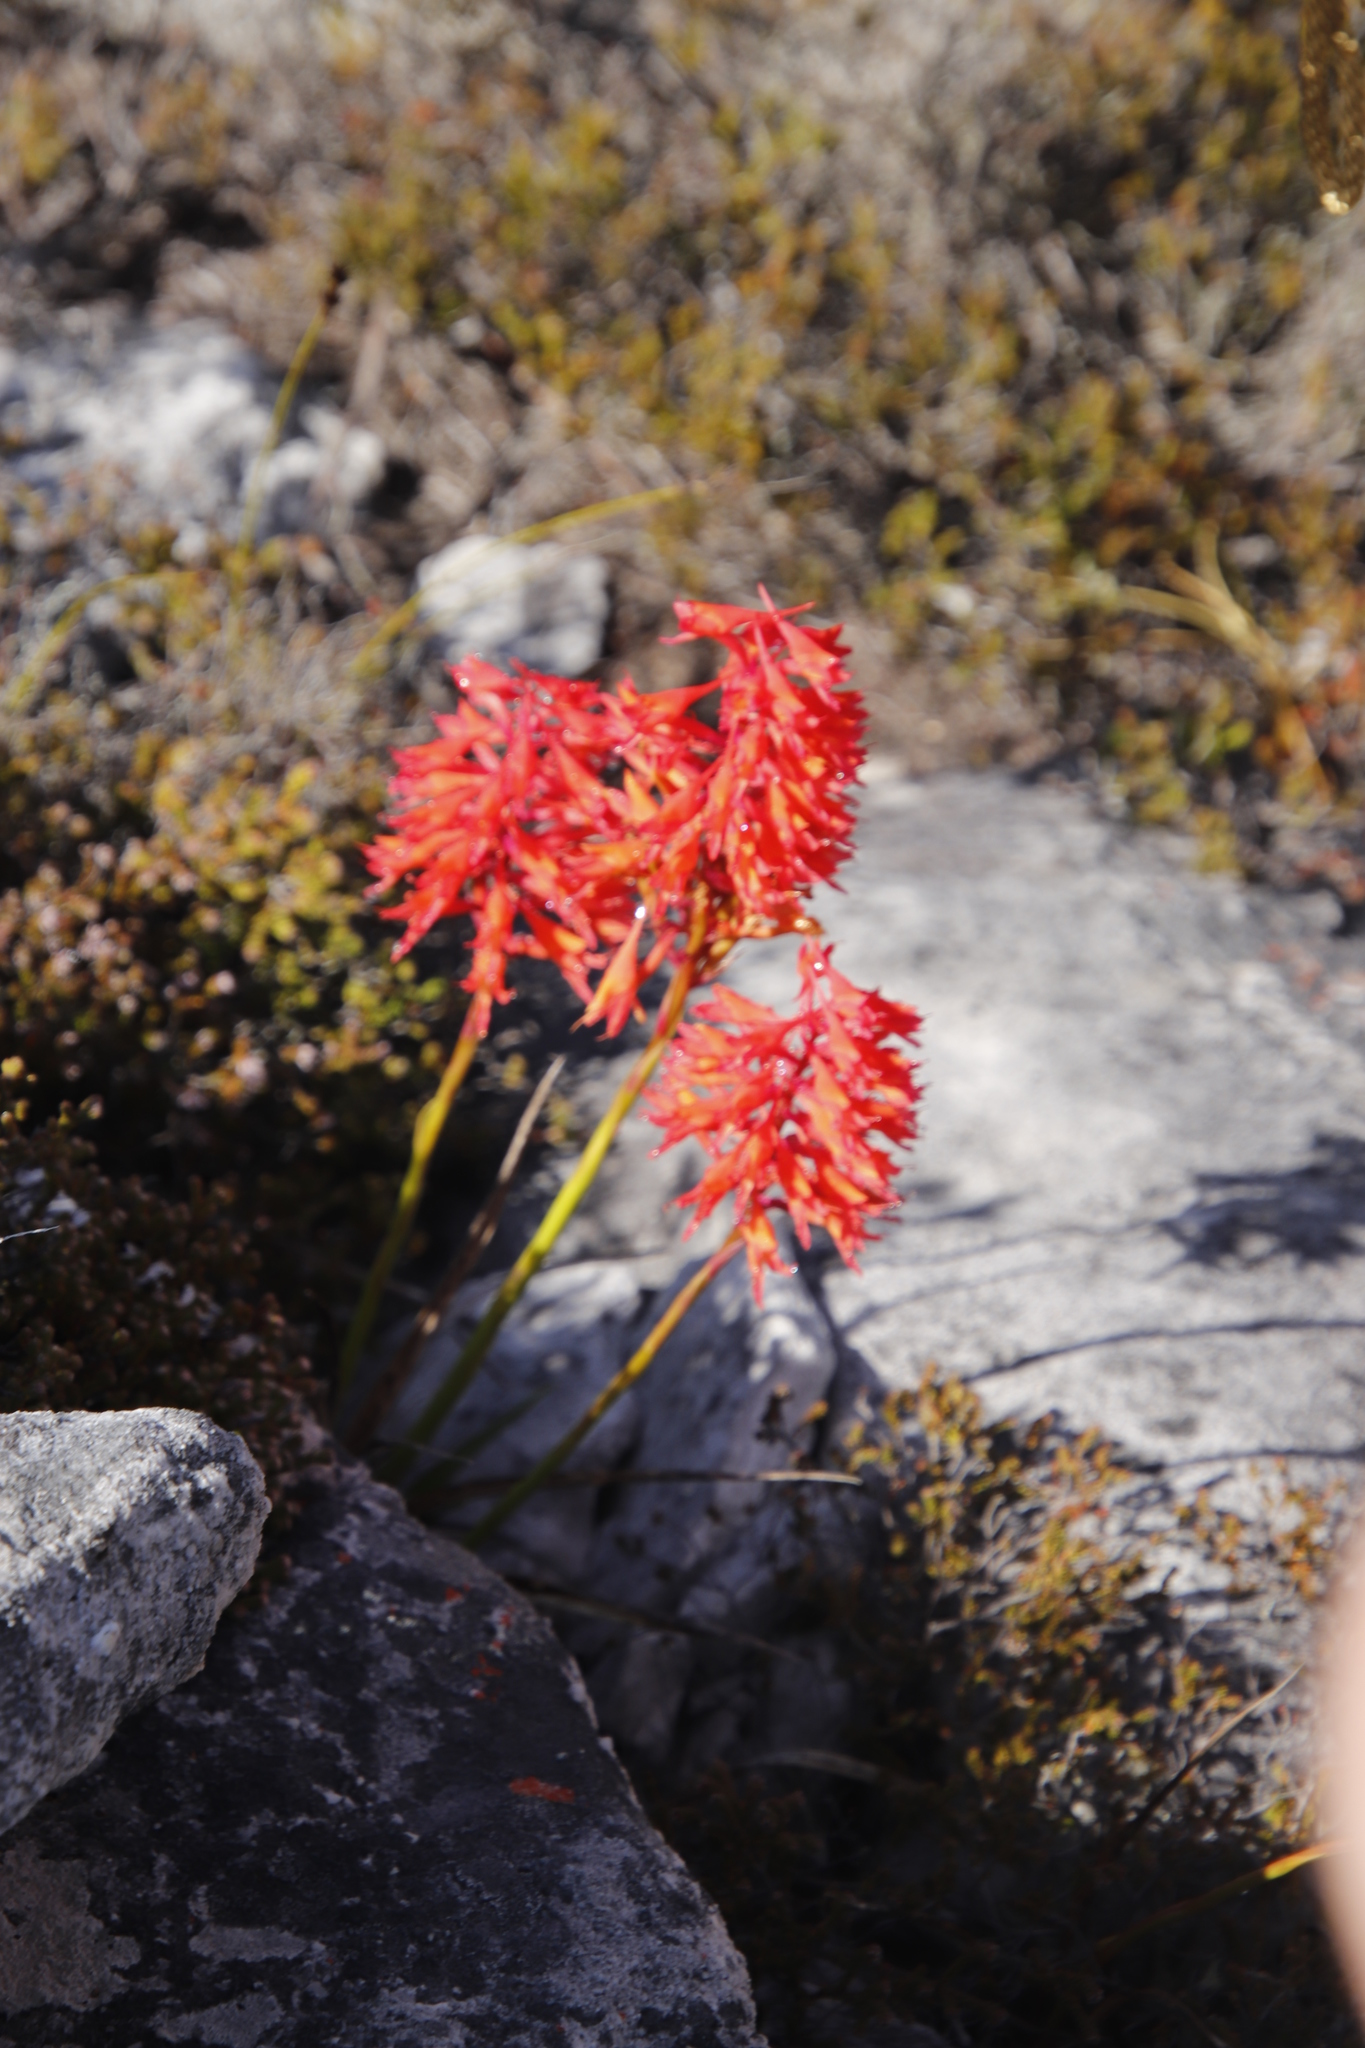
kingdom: Plantae
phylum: Tracheophyta
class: Liliopsida
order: Asparagales
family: Orchidaceae
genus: Disa
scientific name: Disa ferruginea
